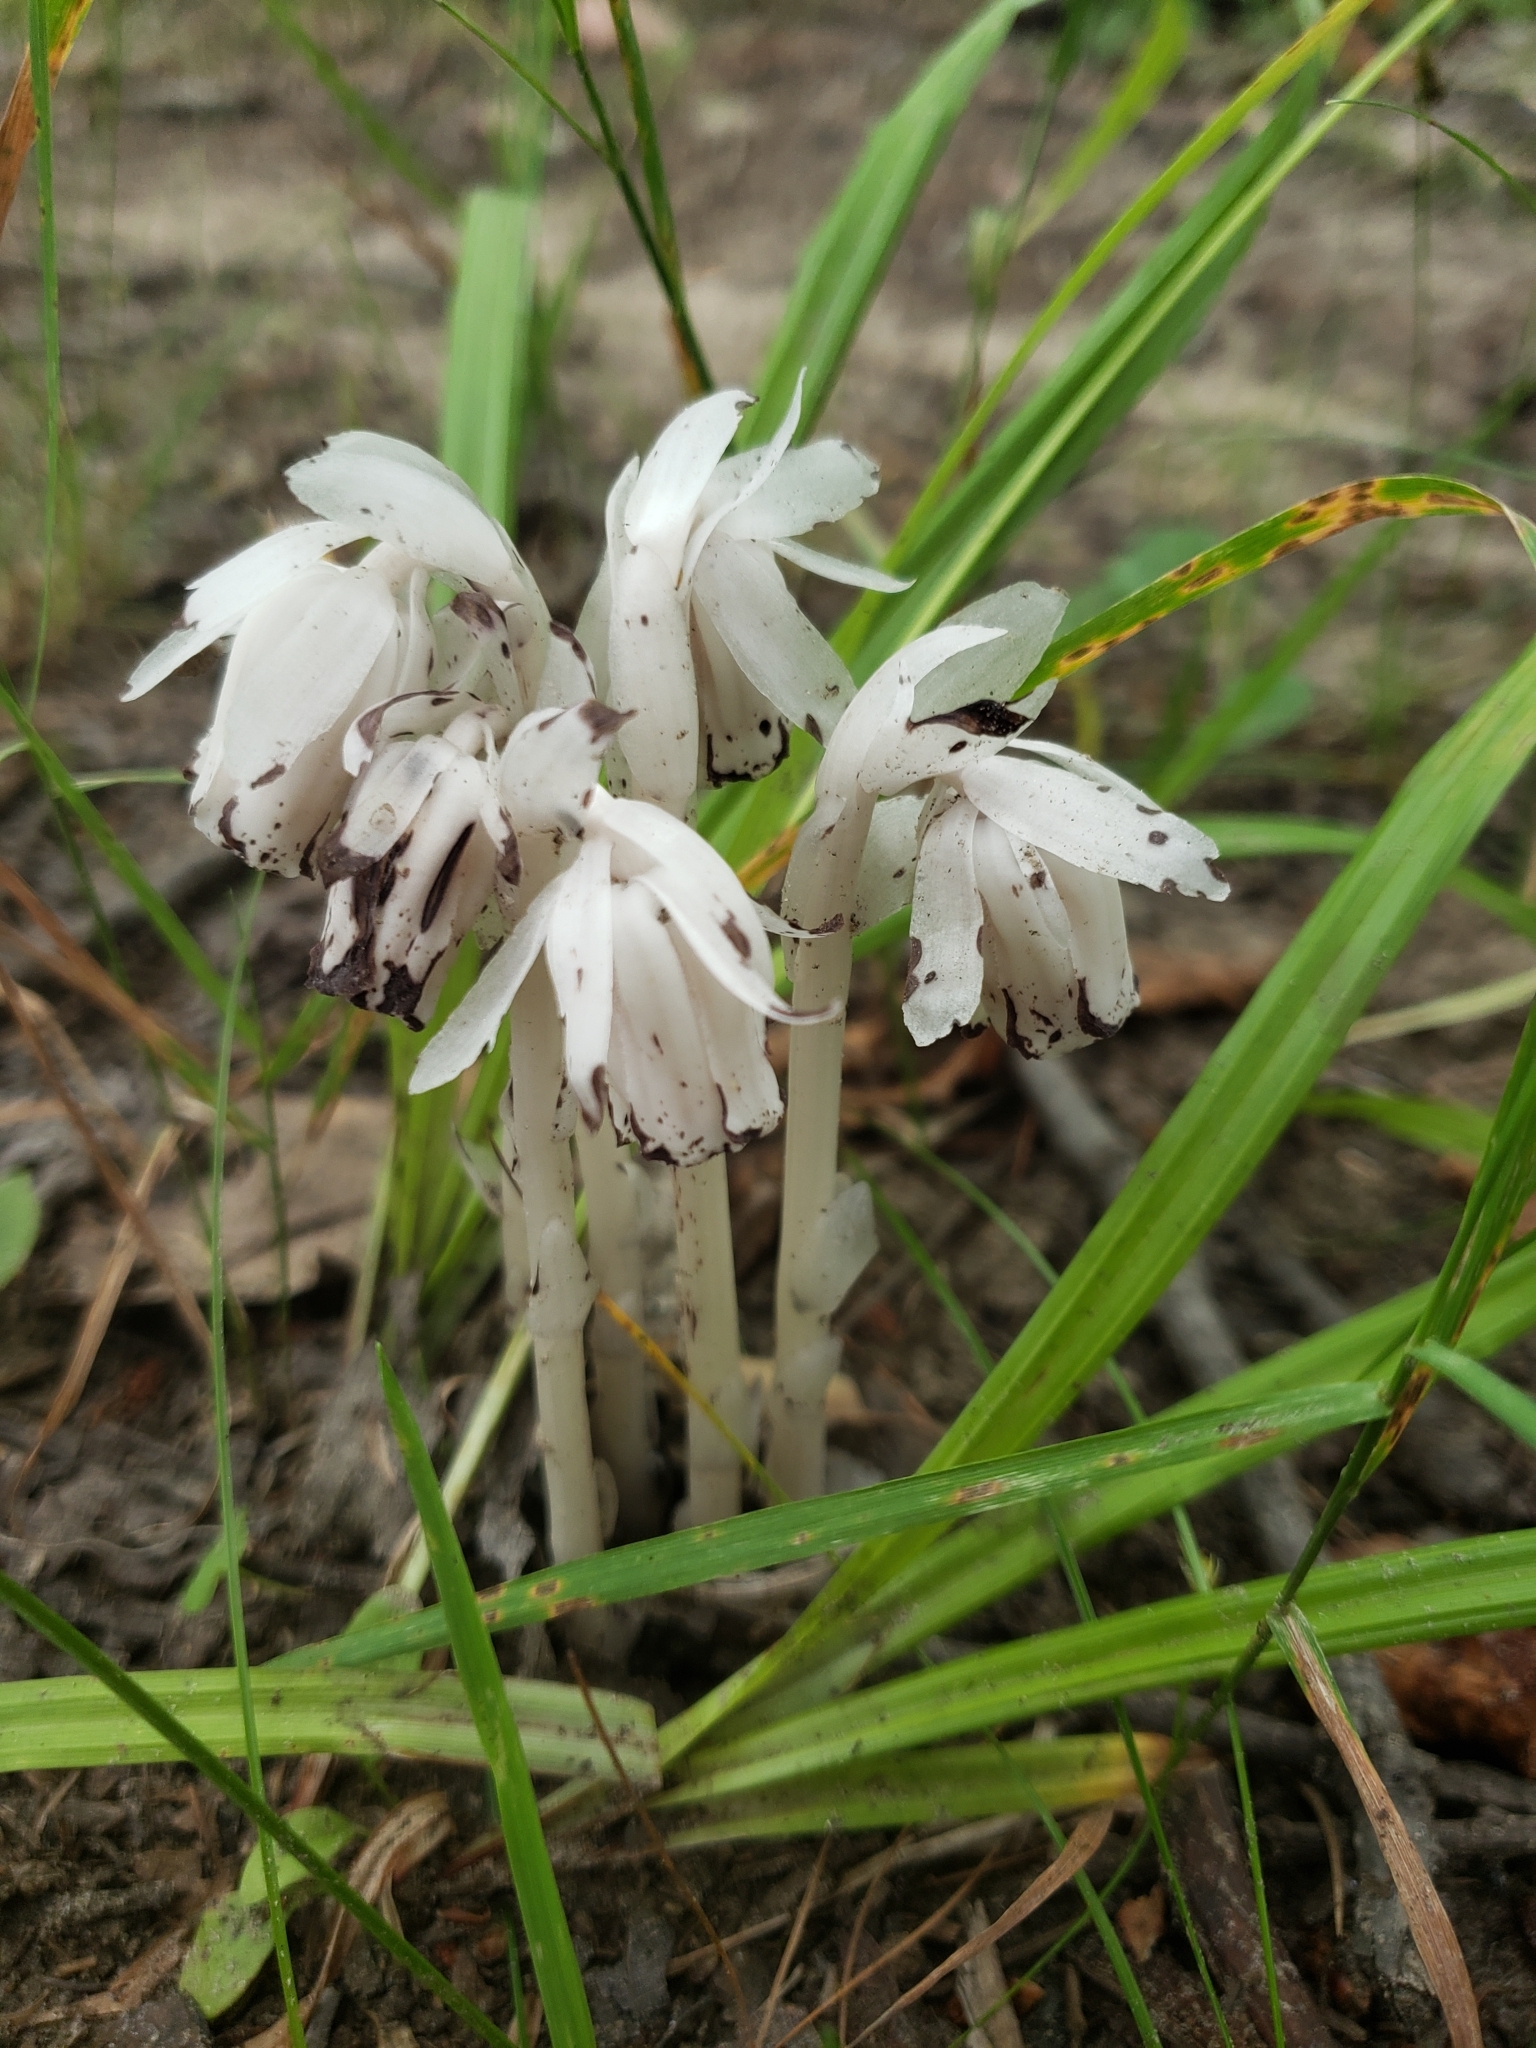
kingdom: Plantae
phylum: Tracheophyta
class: Magnoliopsida
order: Ericales
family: Ericaceae
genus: Monotropa
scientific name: Monotropa uniflora
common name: Convulsion root
